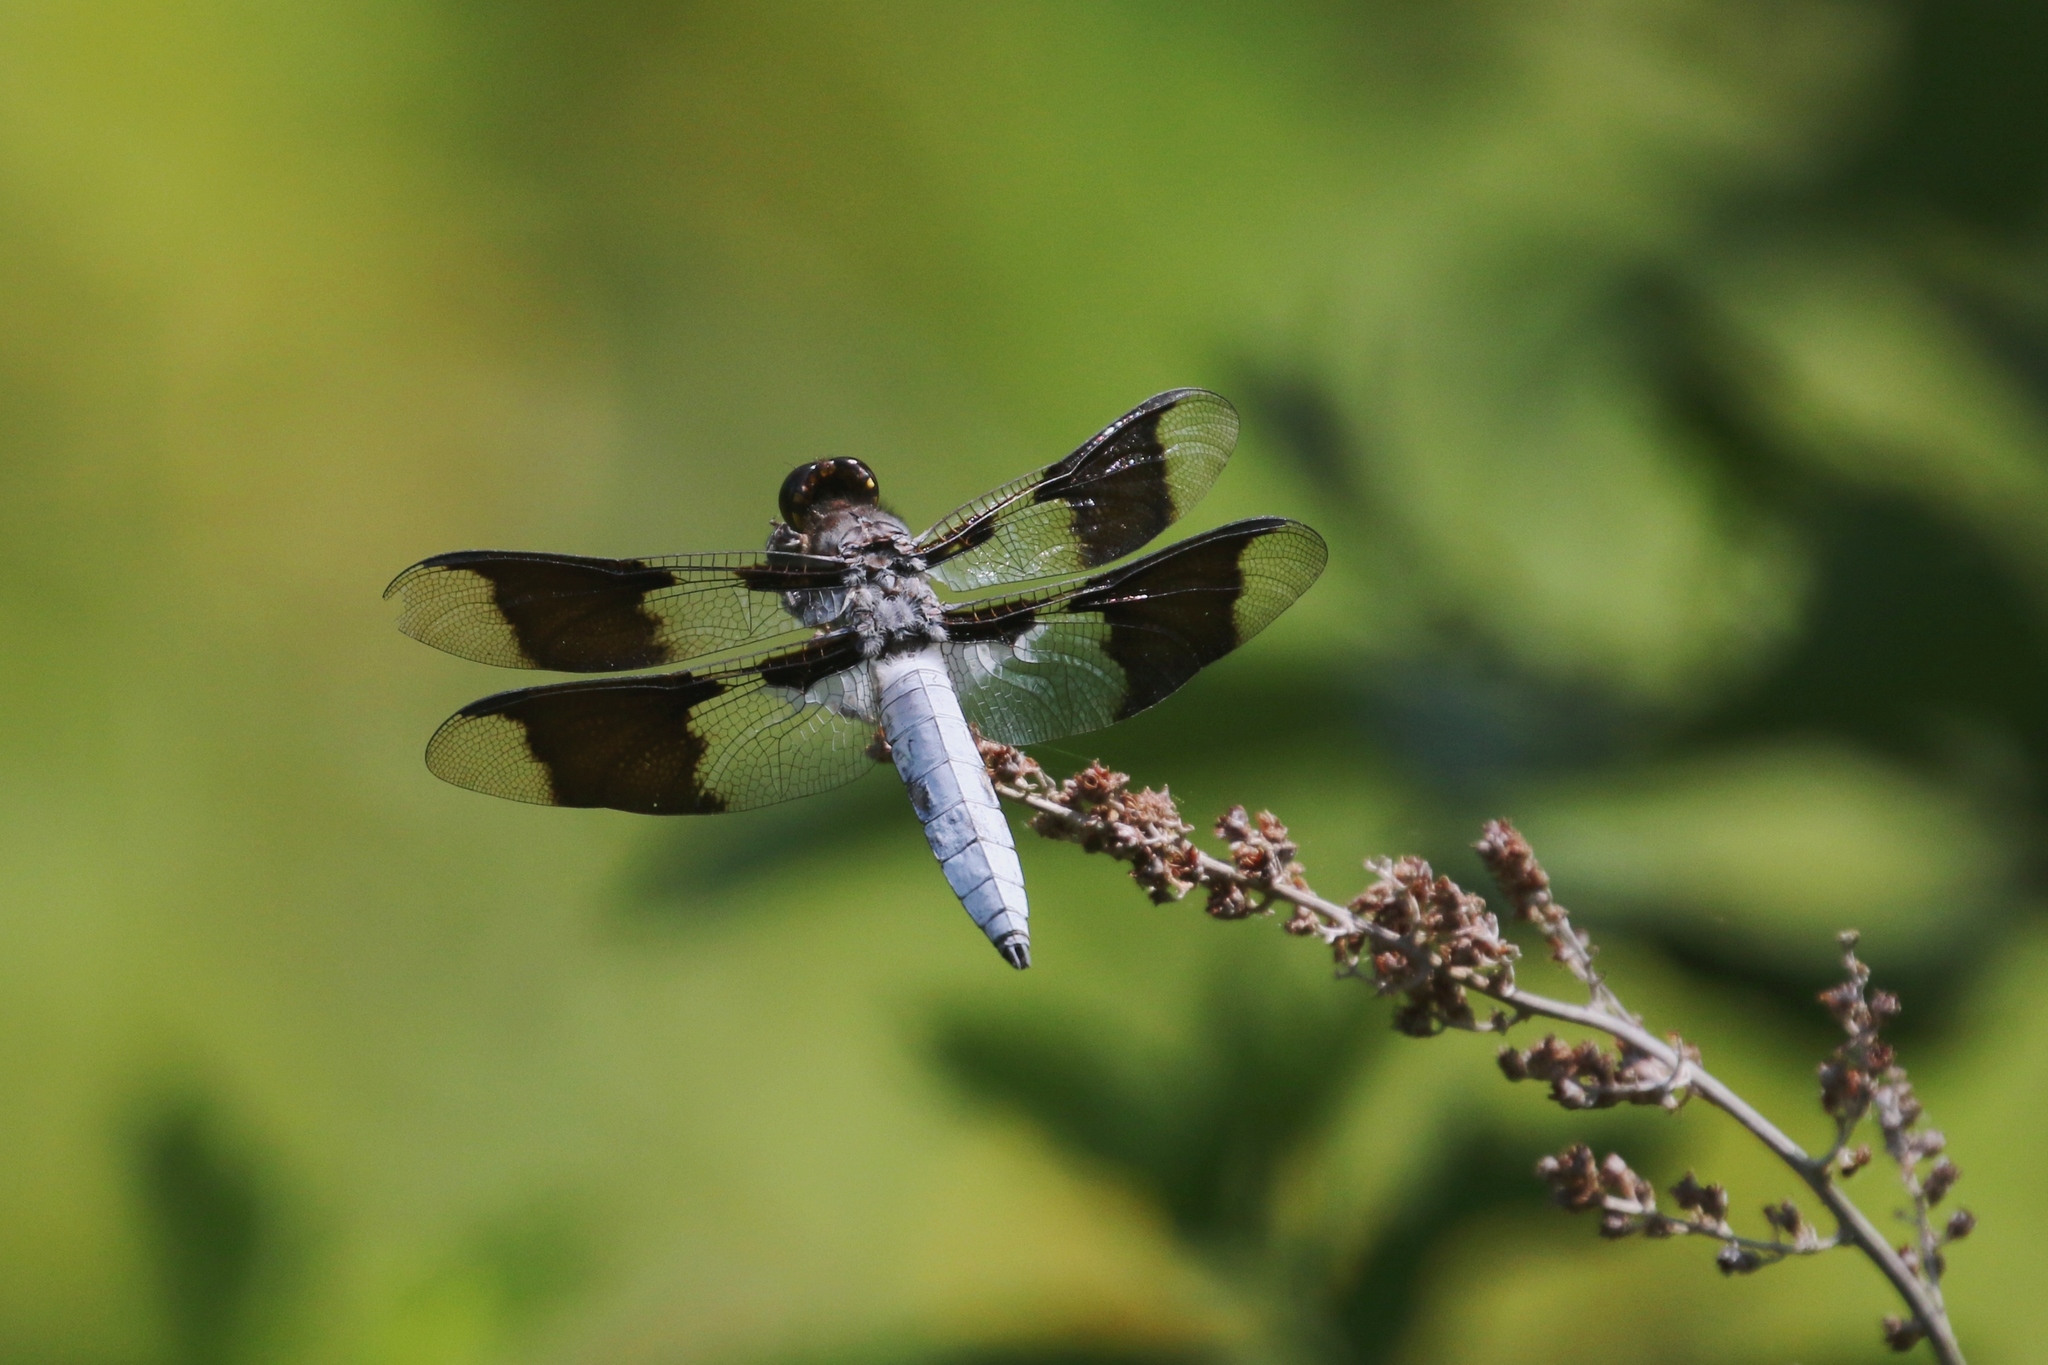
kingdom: Animalia
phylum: Arthropoda
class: Insecta
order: Odonata
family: Libellulidae
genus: Plathemis
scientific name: Plathemis lydia
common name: Common whitetail
